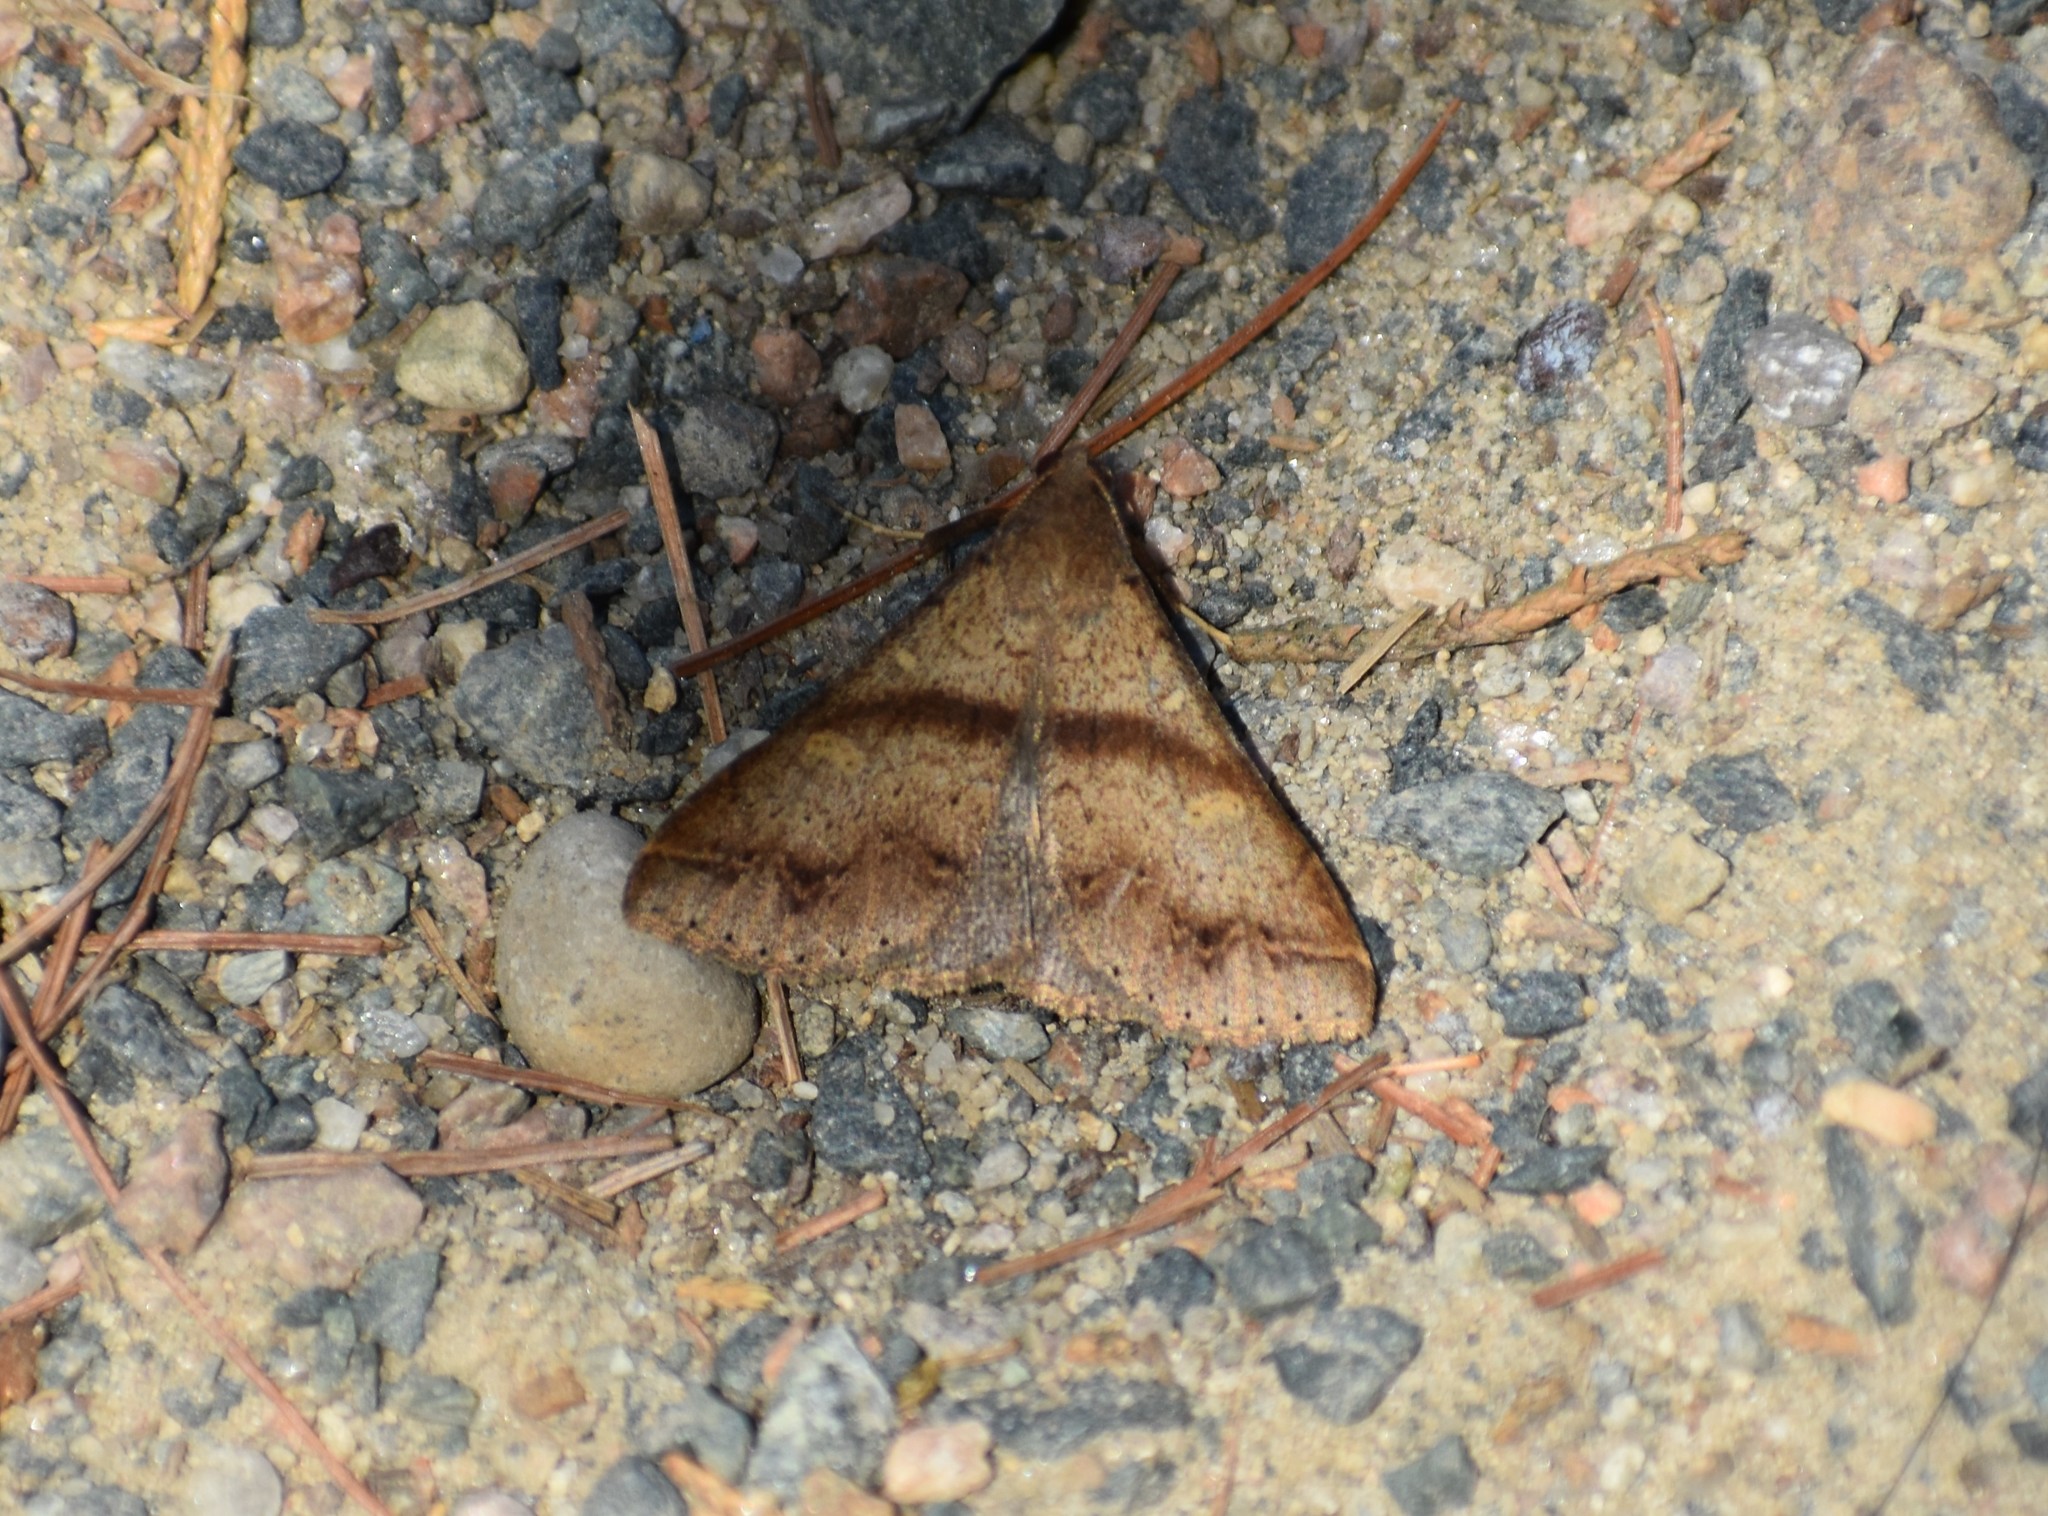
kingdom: Animalia
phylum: Arthropoda
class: Insecta
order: Lepidoptera
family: Erebidae
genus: Renia
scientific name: Renia discoloralis
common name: Discolored renia moth
